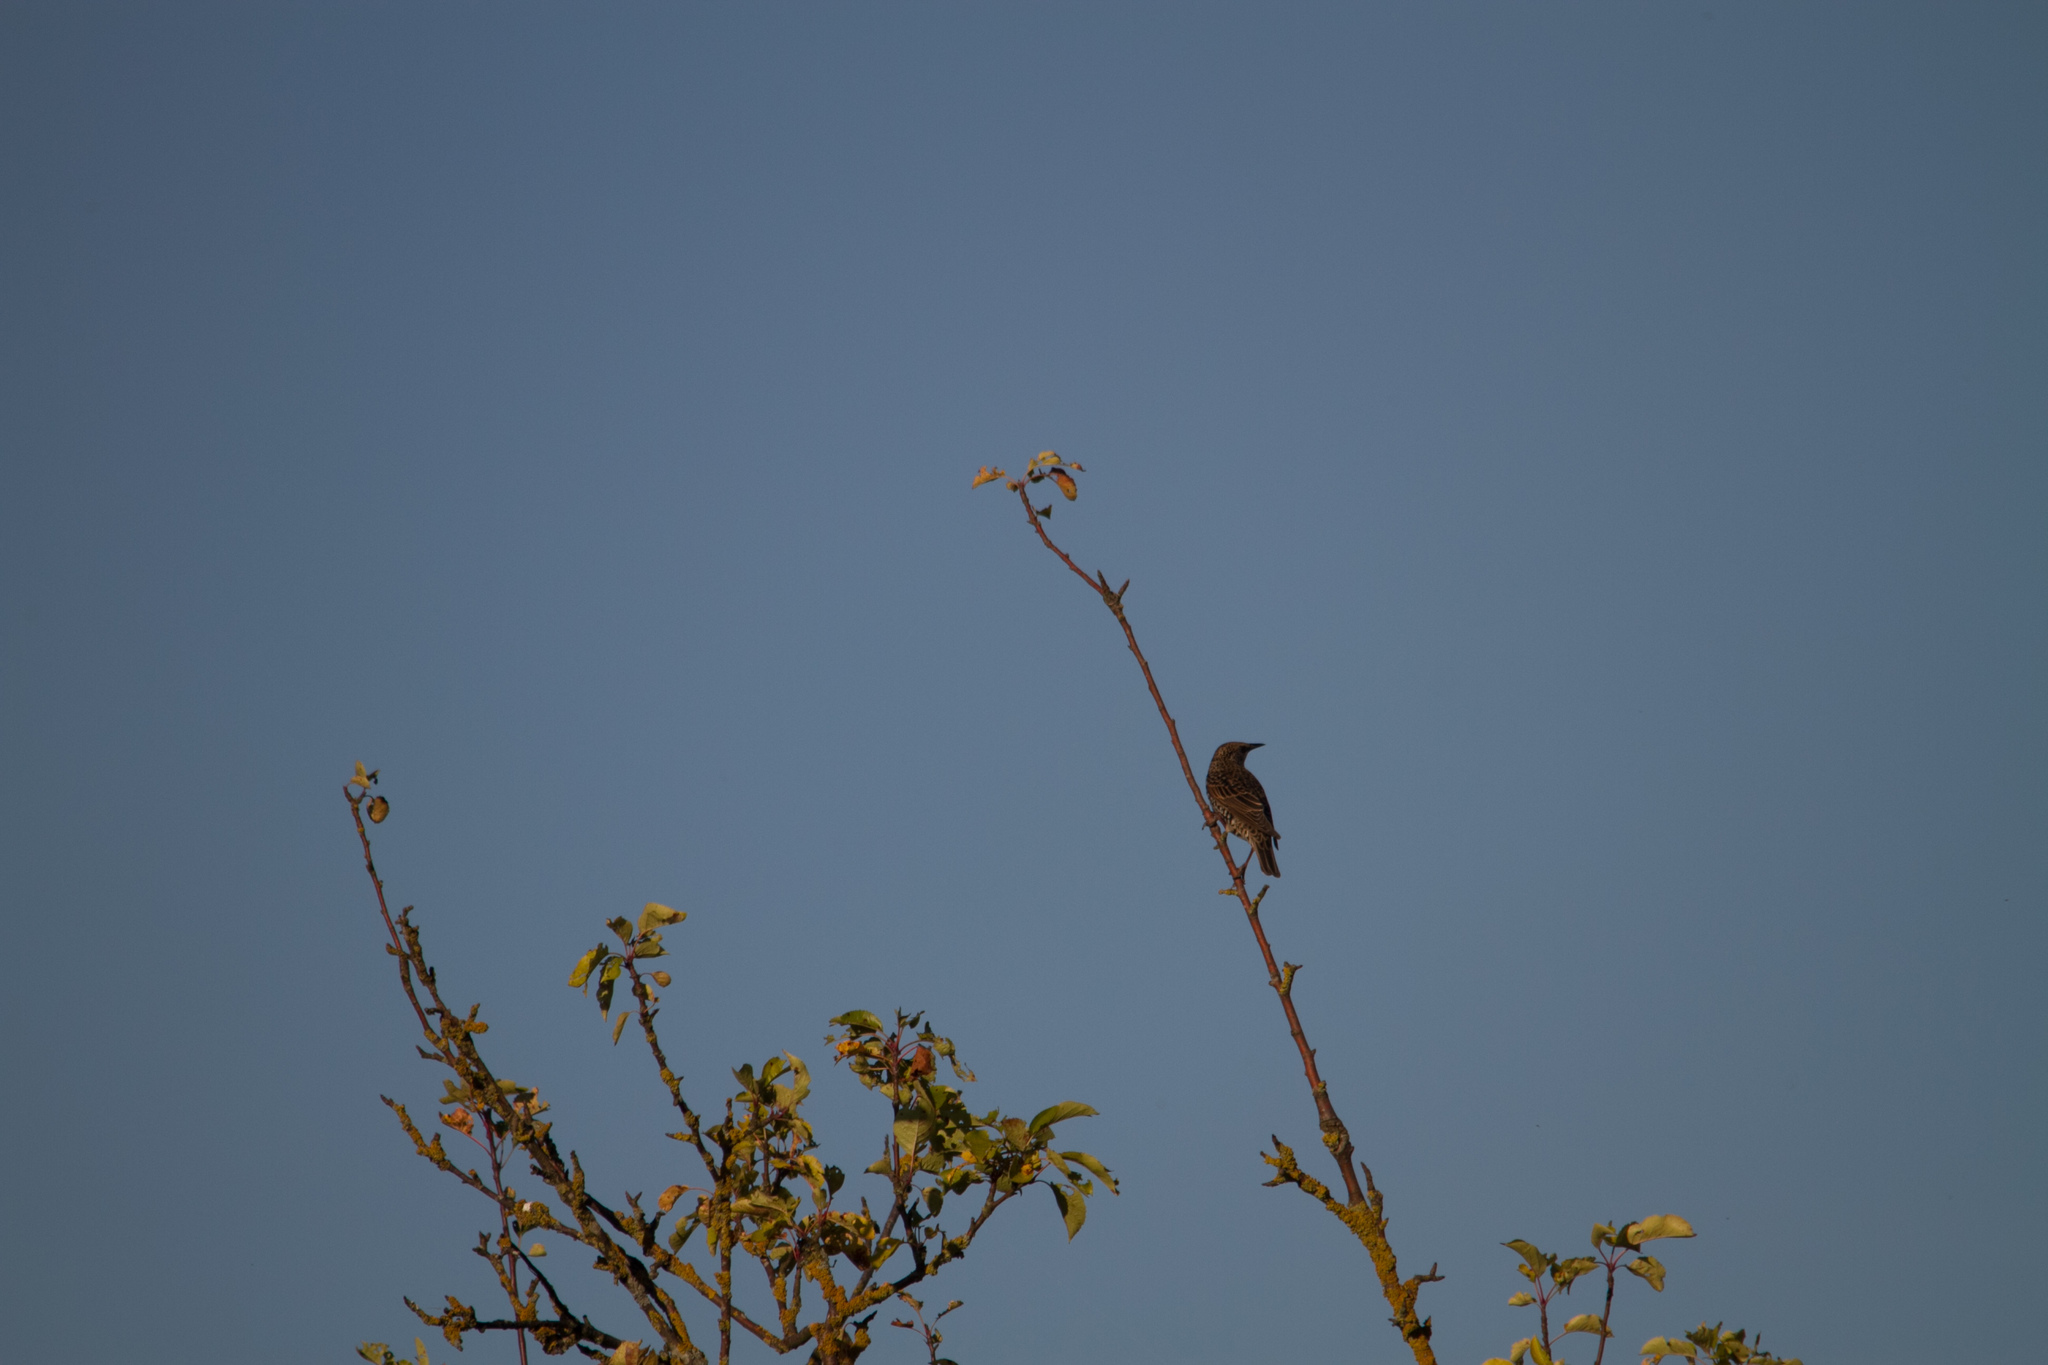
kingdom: Animalia
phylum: Chordata
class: Aves
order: Passeriformes
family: Sturnidae
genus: Sturnus
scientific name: Sturnus vulgaris
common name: Common starling
